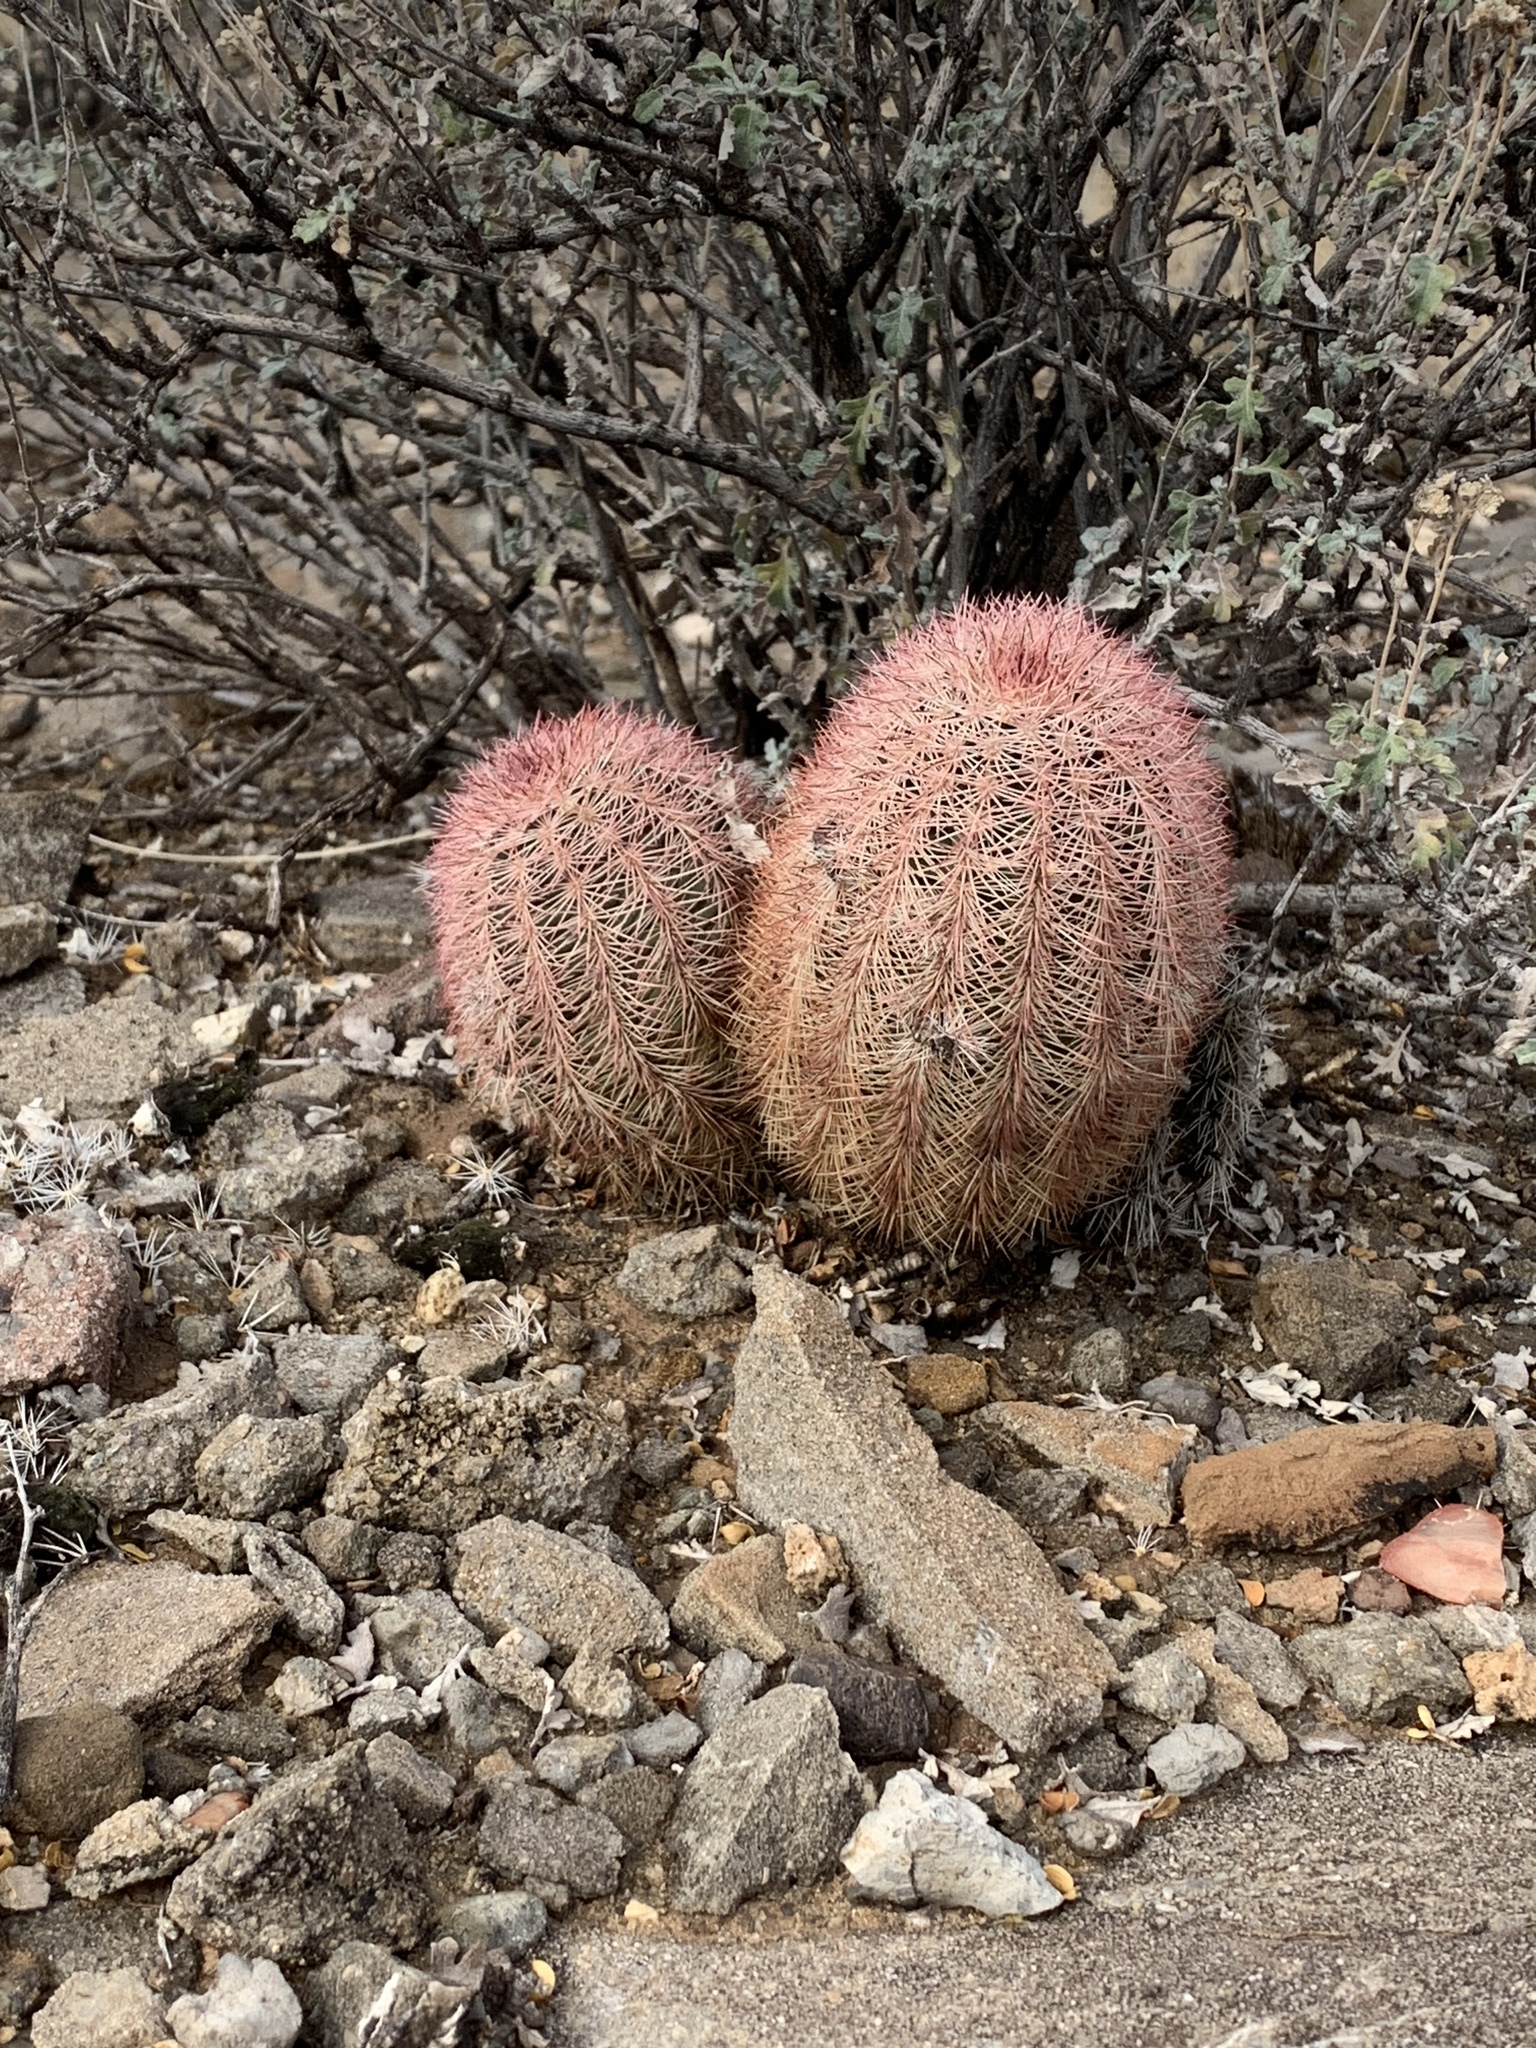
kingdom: Plantae
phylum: Tracheophyta
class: Magnoliopsida
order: Caryophyllales
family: Cactaceae
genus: Echinocereus
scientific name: Echinocereus dasyacanthus
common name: Spiny hedgehog cactus
